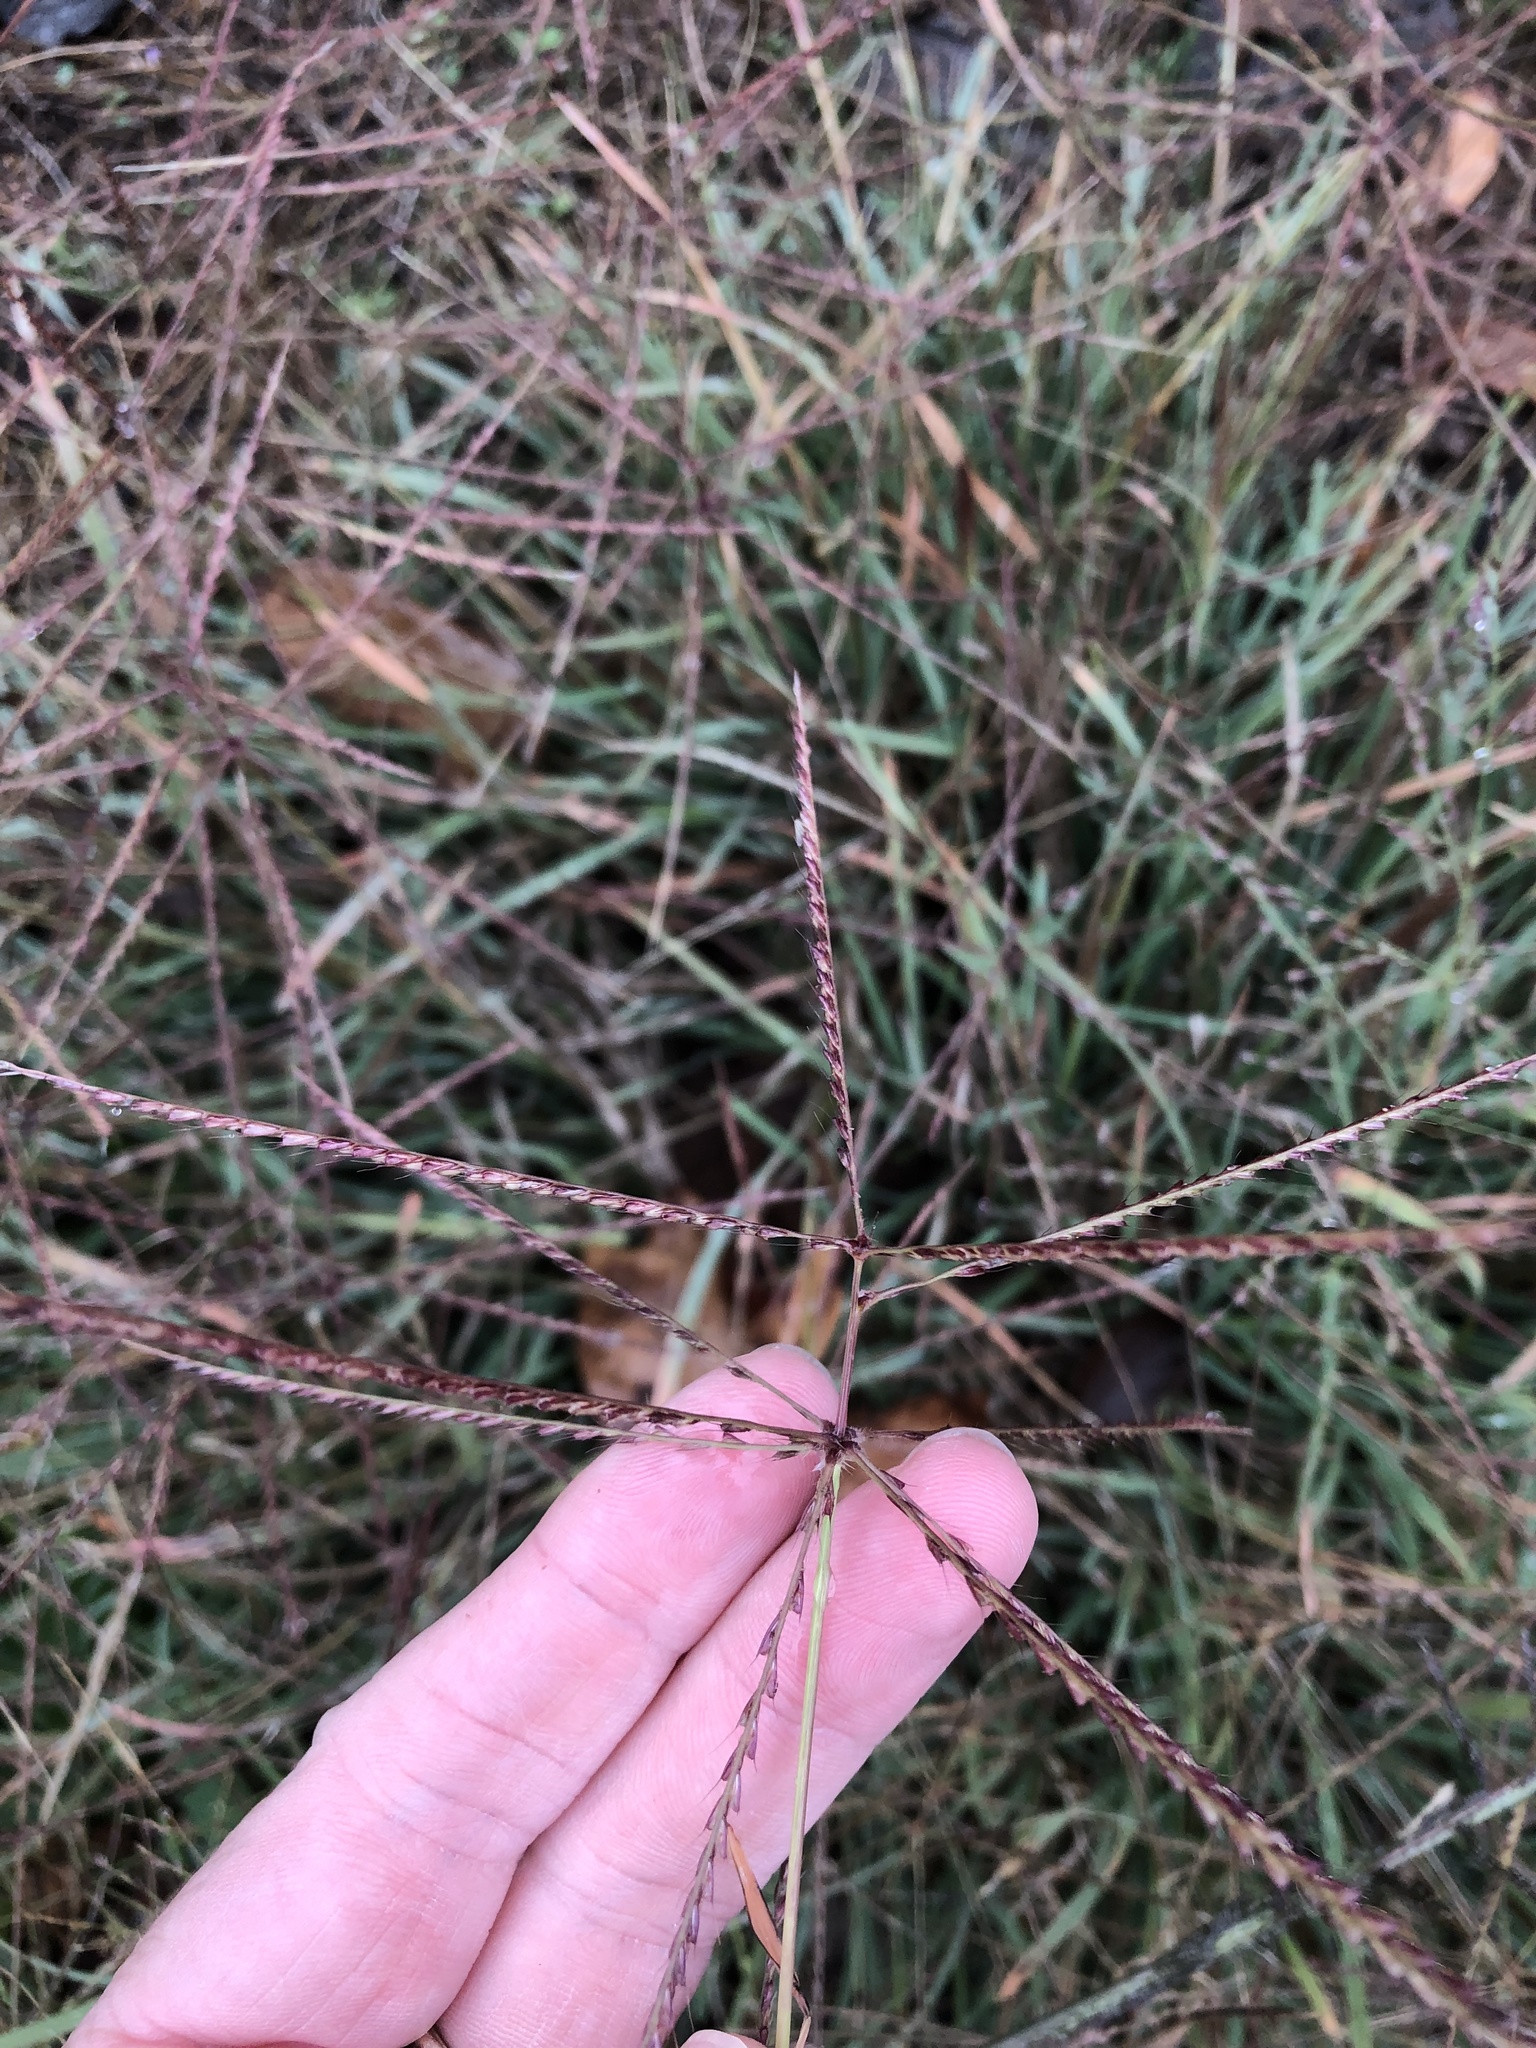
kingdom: Plantae
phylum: Tracheophyta
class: Liliopsida
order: Poales
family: Poaceae
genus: Chloris
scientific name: Chloris verticillata
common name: Tumble windmill grass
